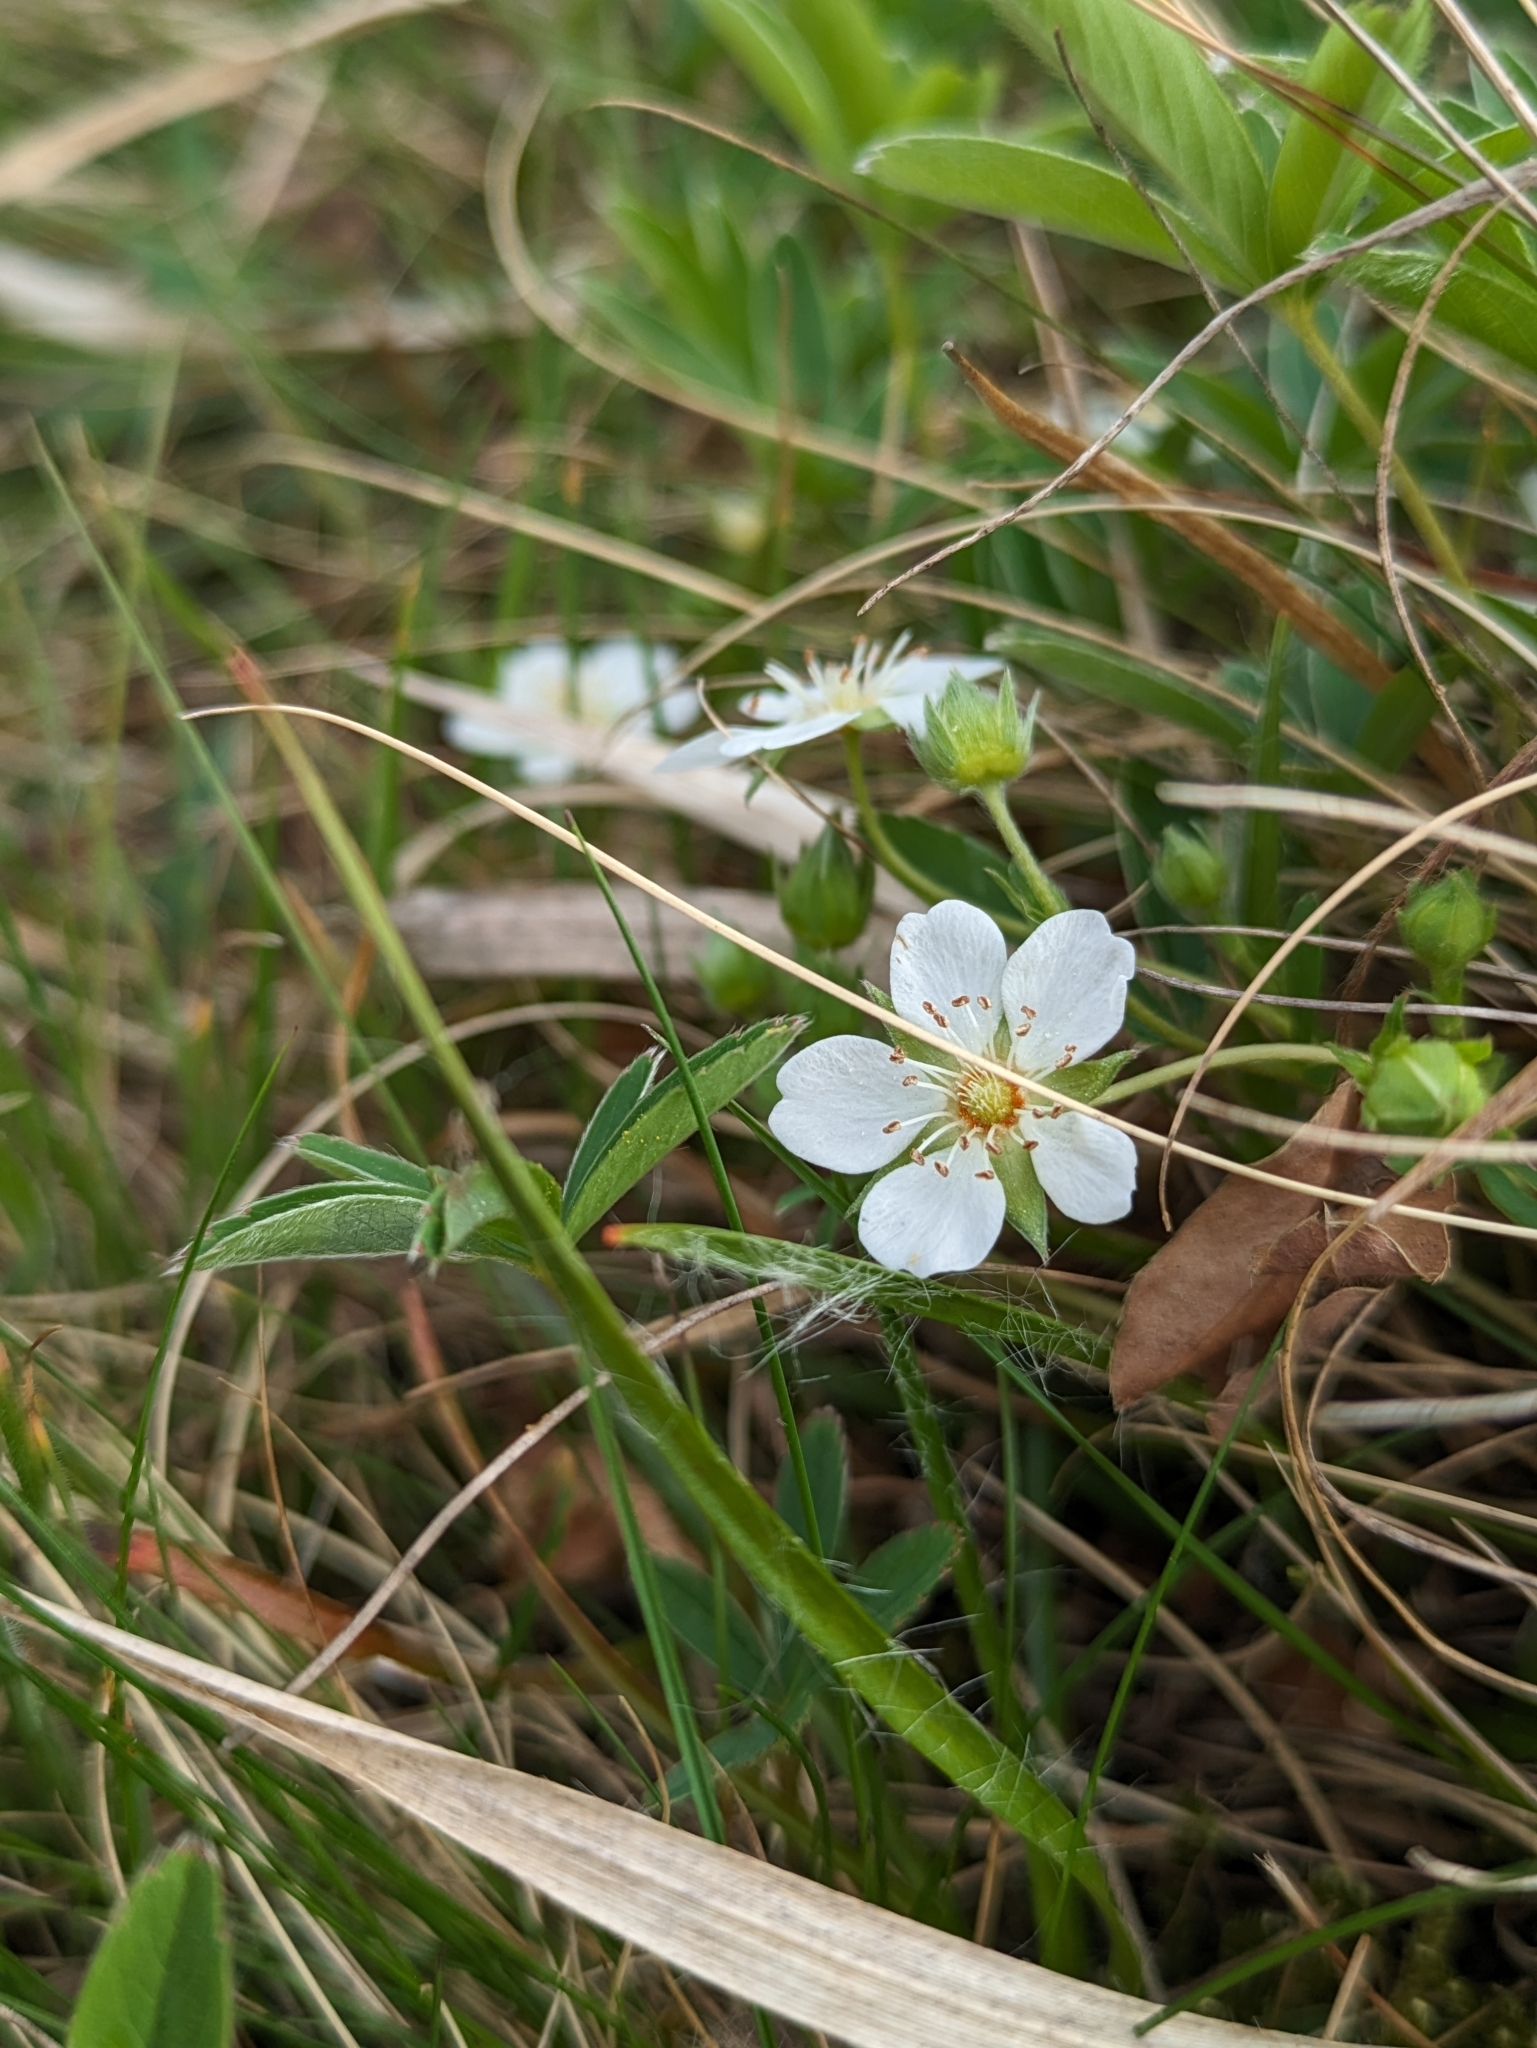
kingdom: Plantae
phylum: Tracheophyta
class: Magnoliopsida
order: Rosales
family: Rosaceae
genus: Potentilla
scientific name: Potentilla alba
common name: White cinquefoil
